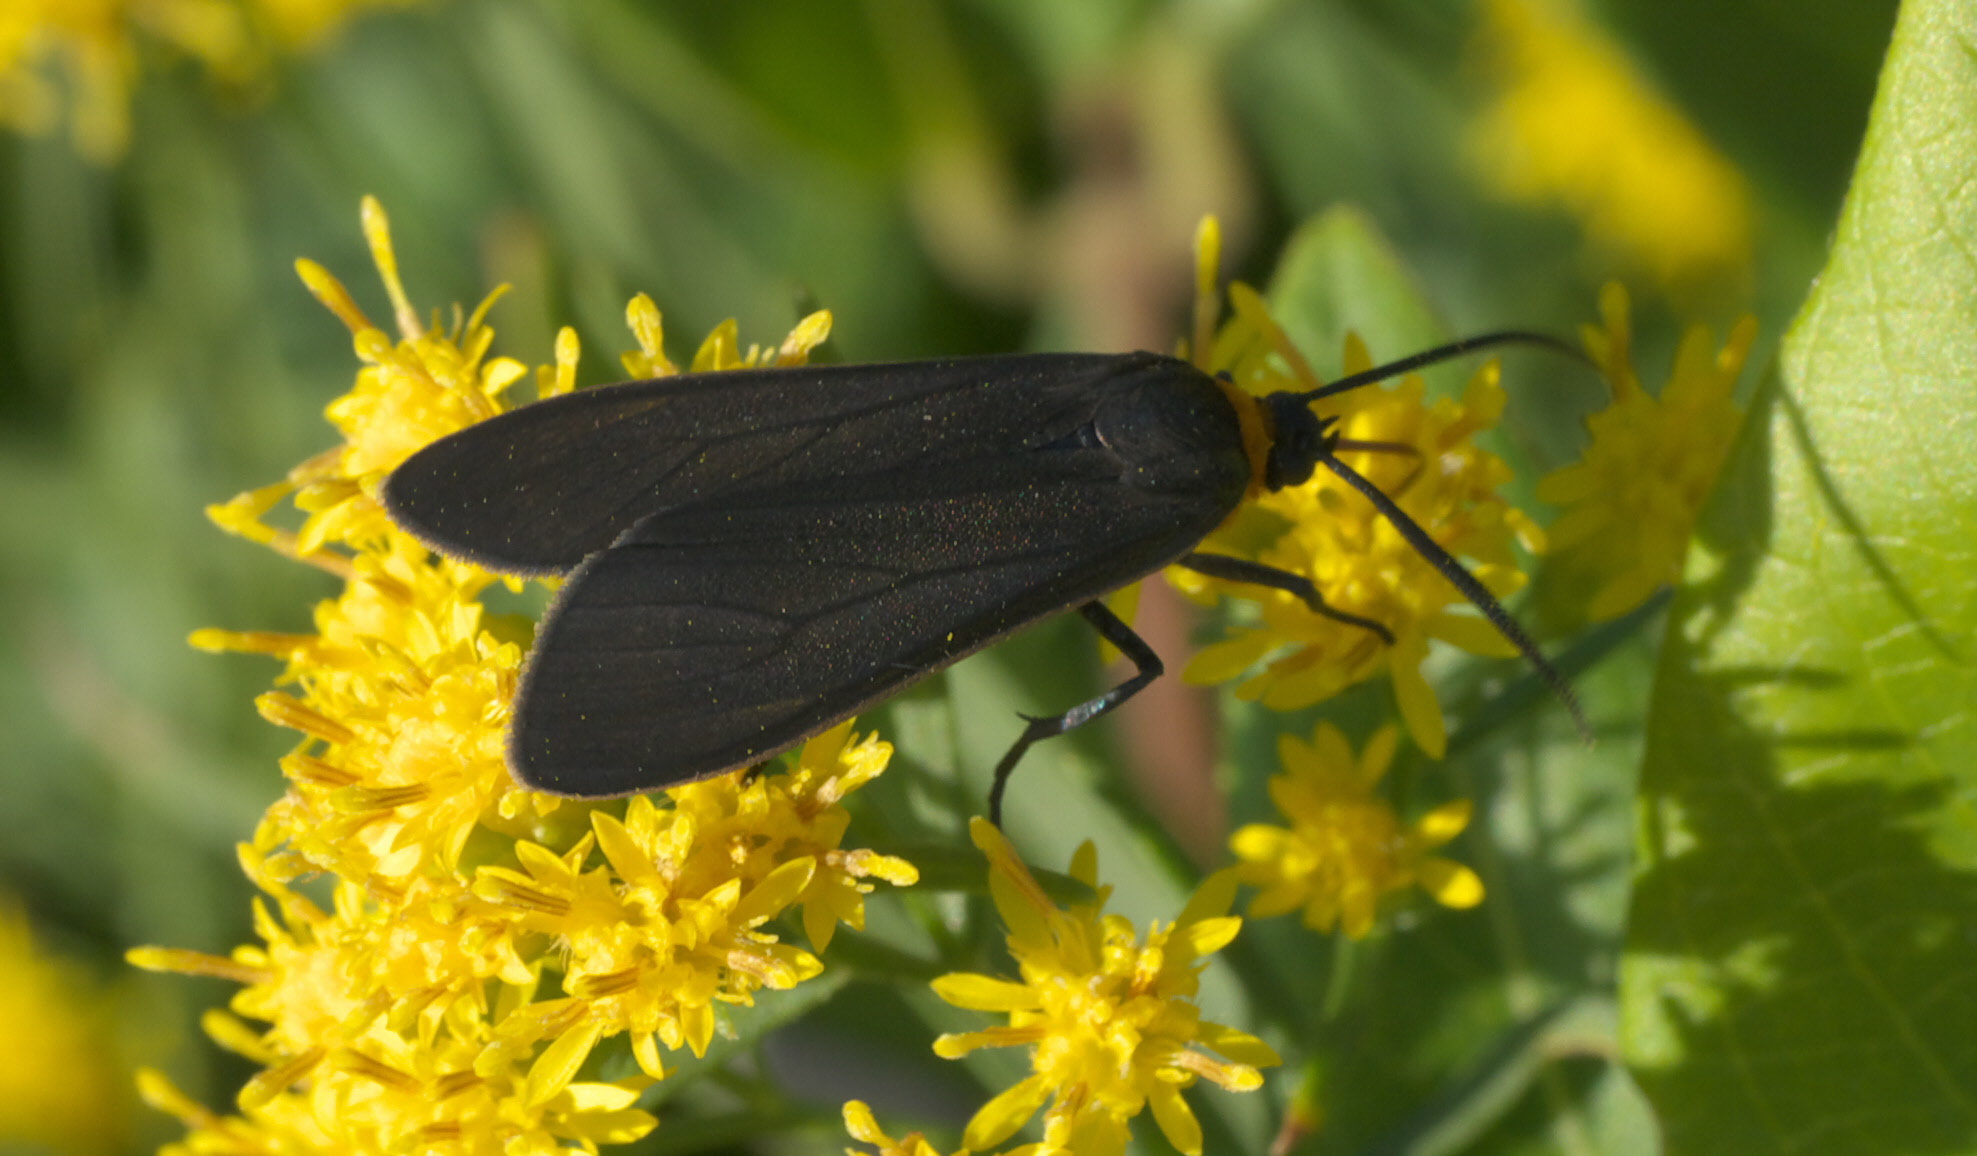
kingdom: Animalia
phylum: Arthropoda
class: Insecta
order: Lepidoptera
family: Erebidae
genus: Cisseps
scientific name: Cisseps fulvicollis
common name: Yellow-collared scape moth
